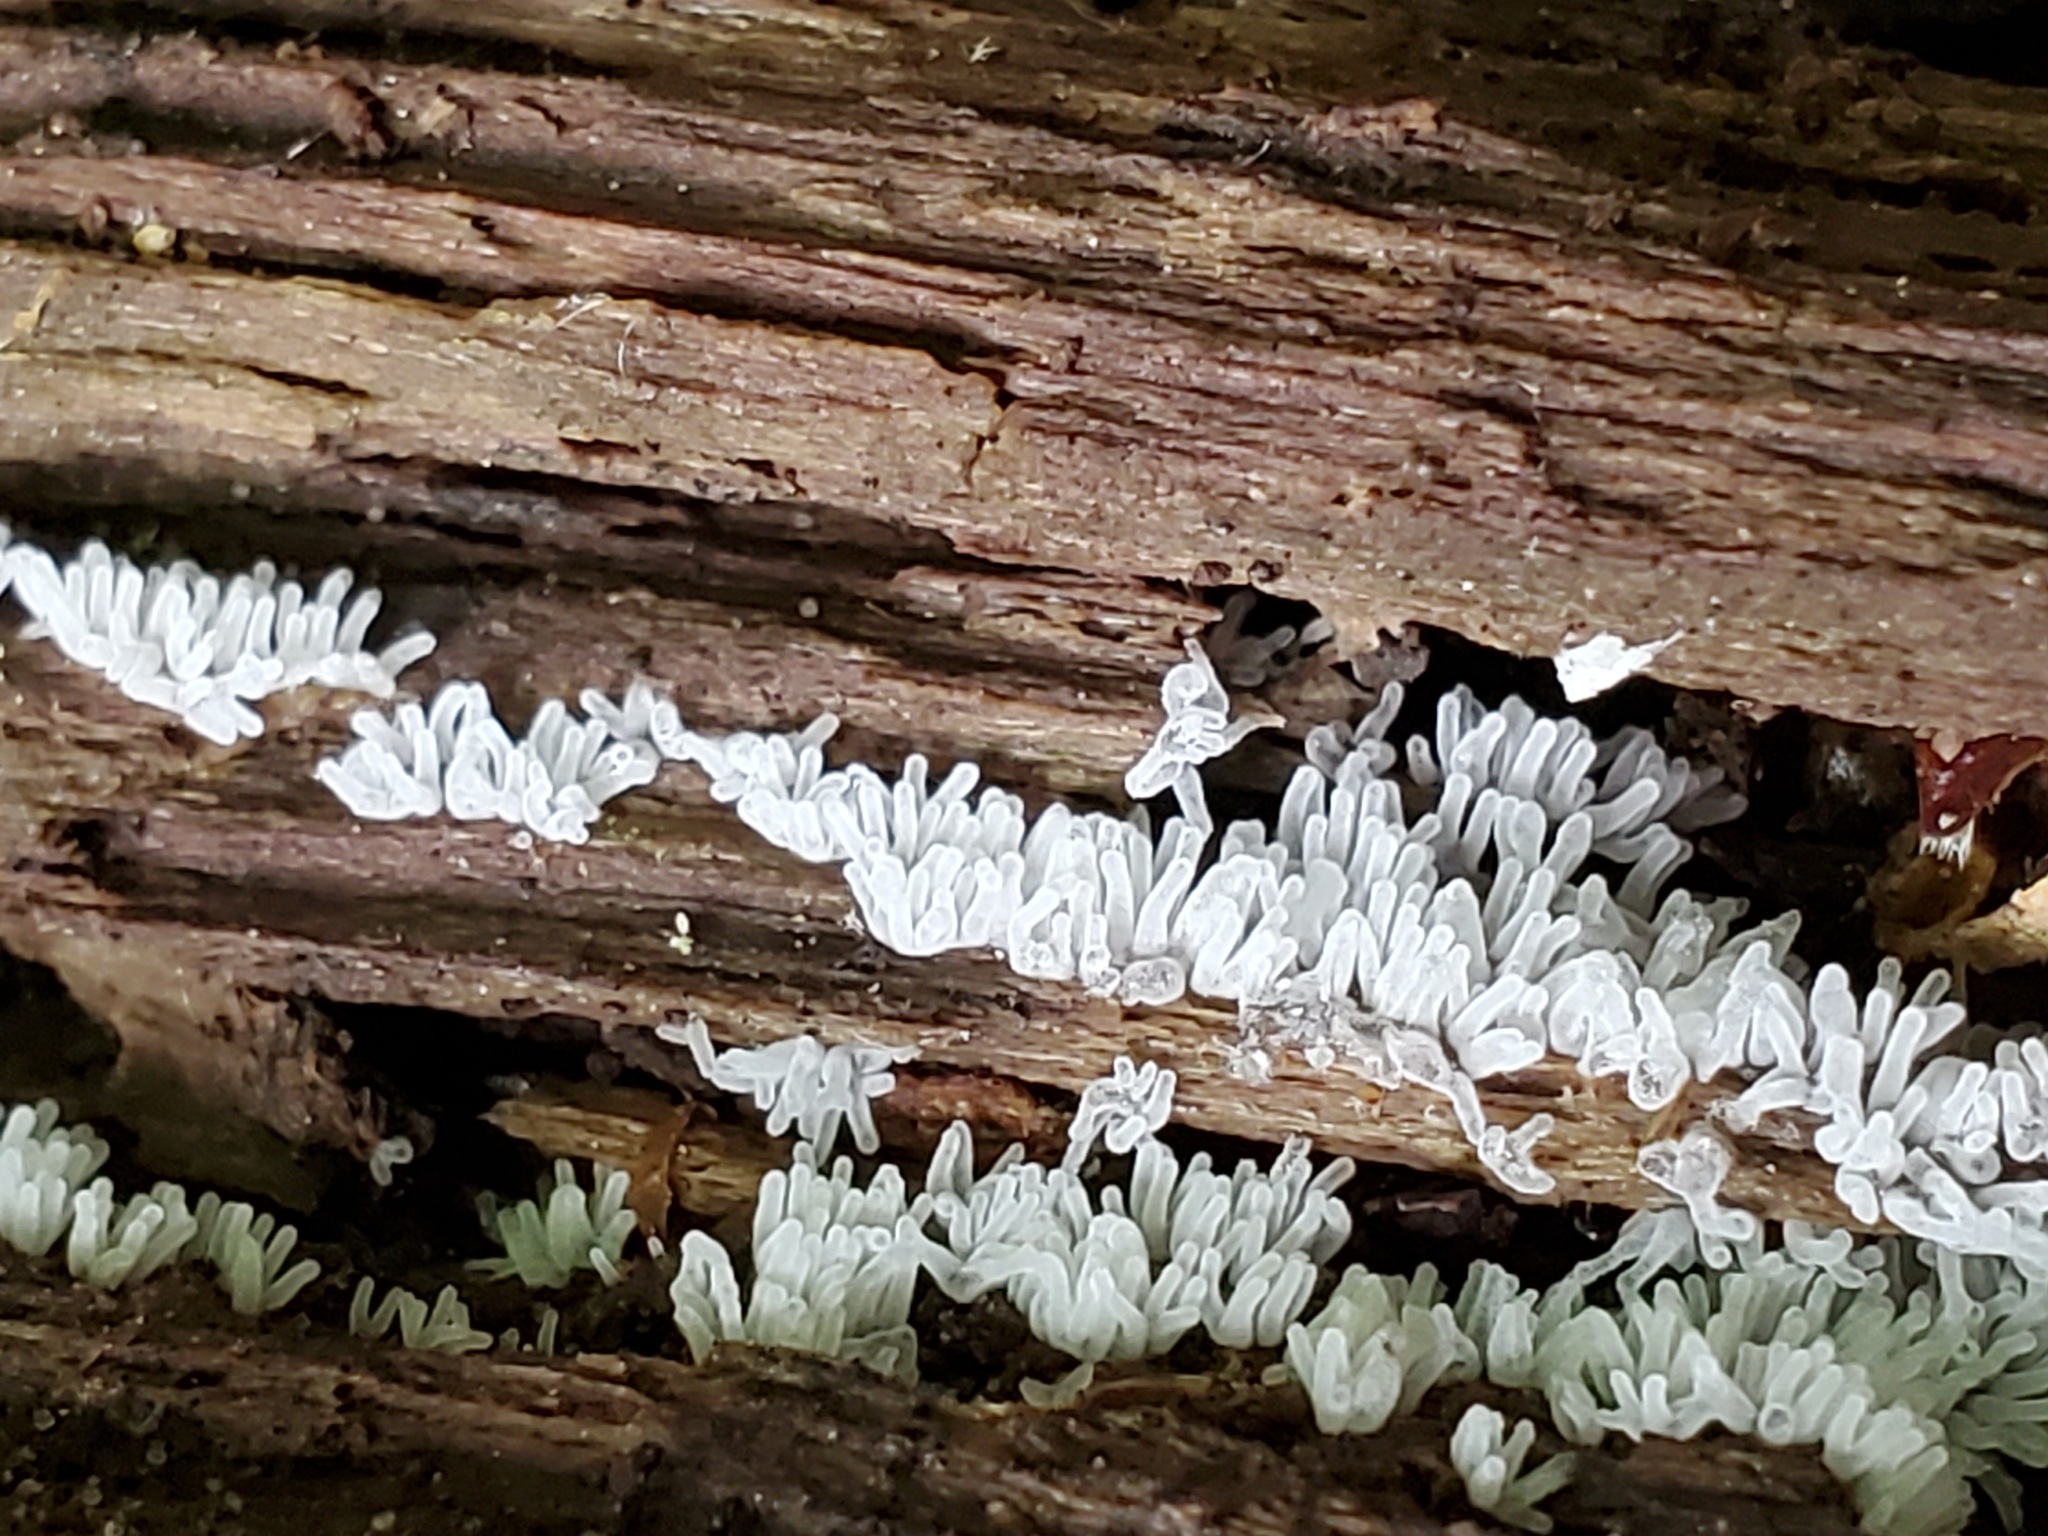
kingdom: Protozoa
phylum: Mycetozoa
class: Protosteliomycetes
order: Ceratiomyxales
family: Ceratiomyxaceae
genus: Ceratiomyxa
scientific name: Ceratiomyxa fruticulosa
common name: Honeycomb coral slime mold
